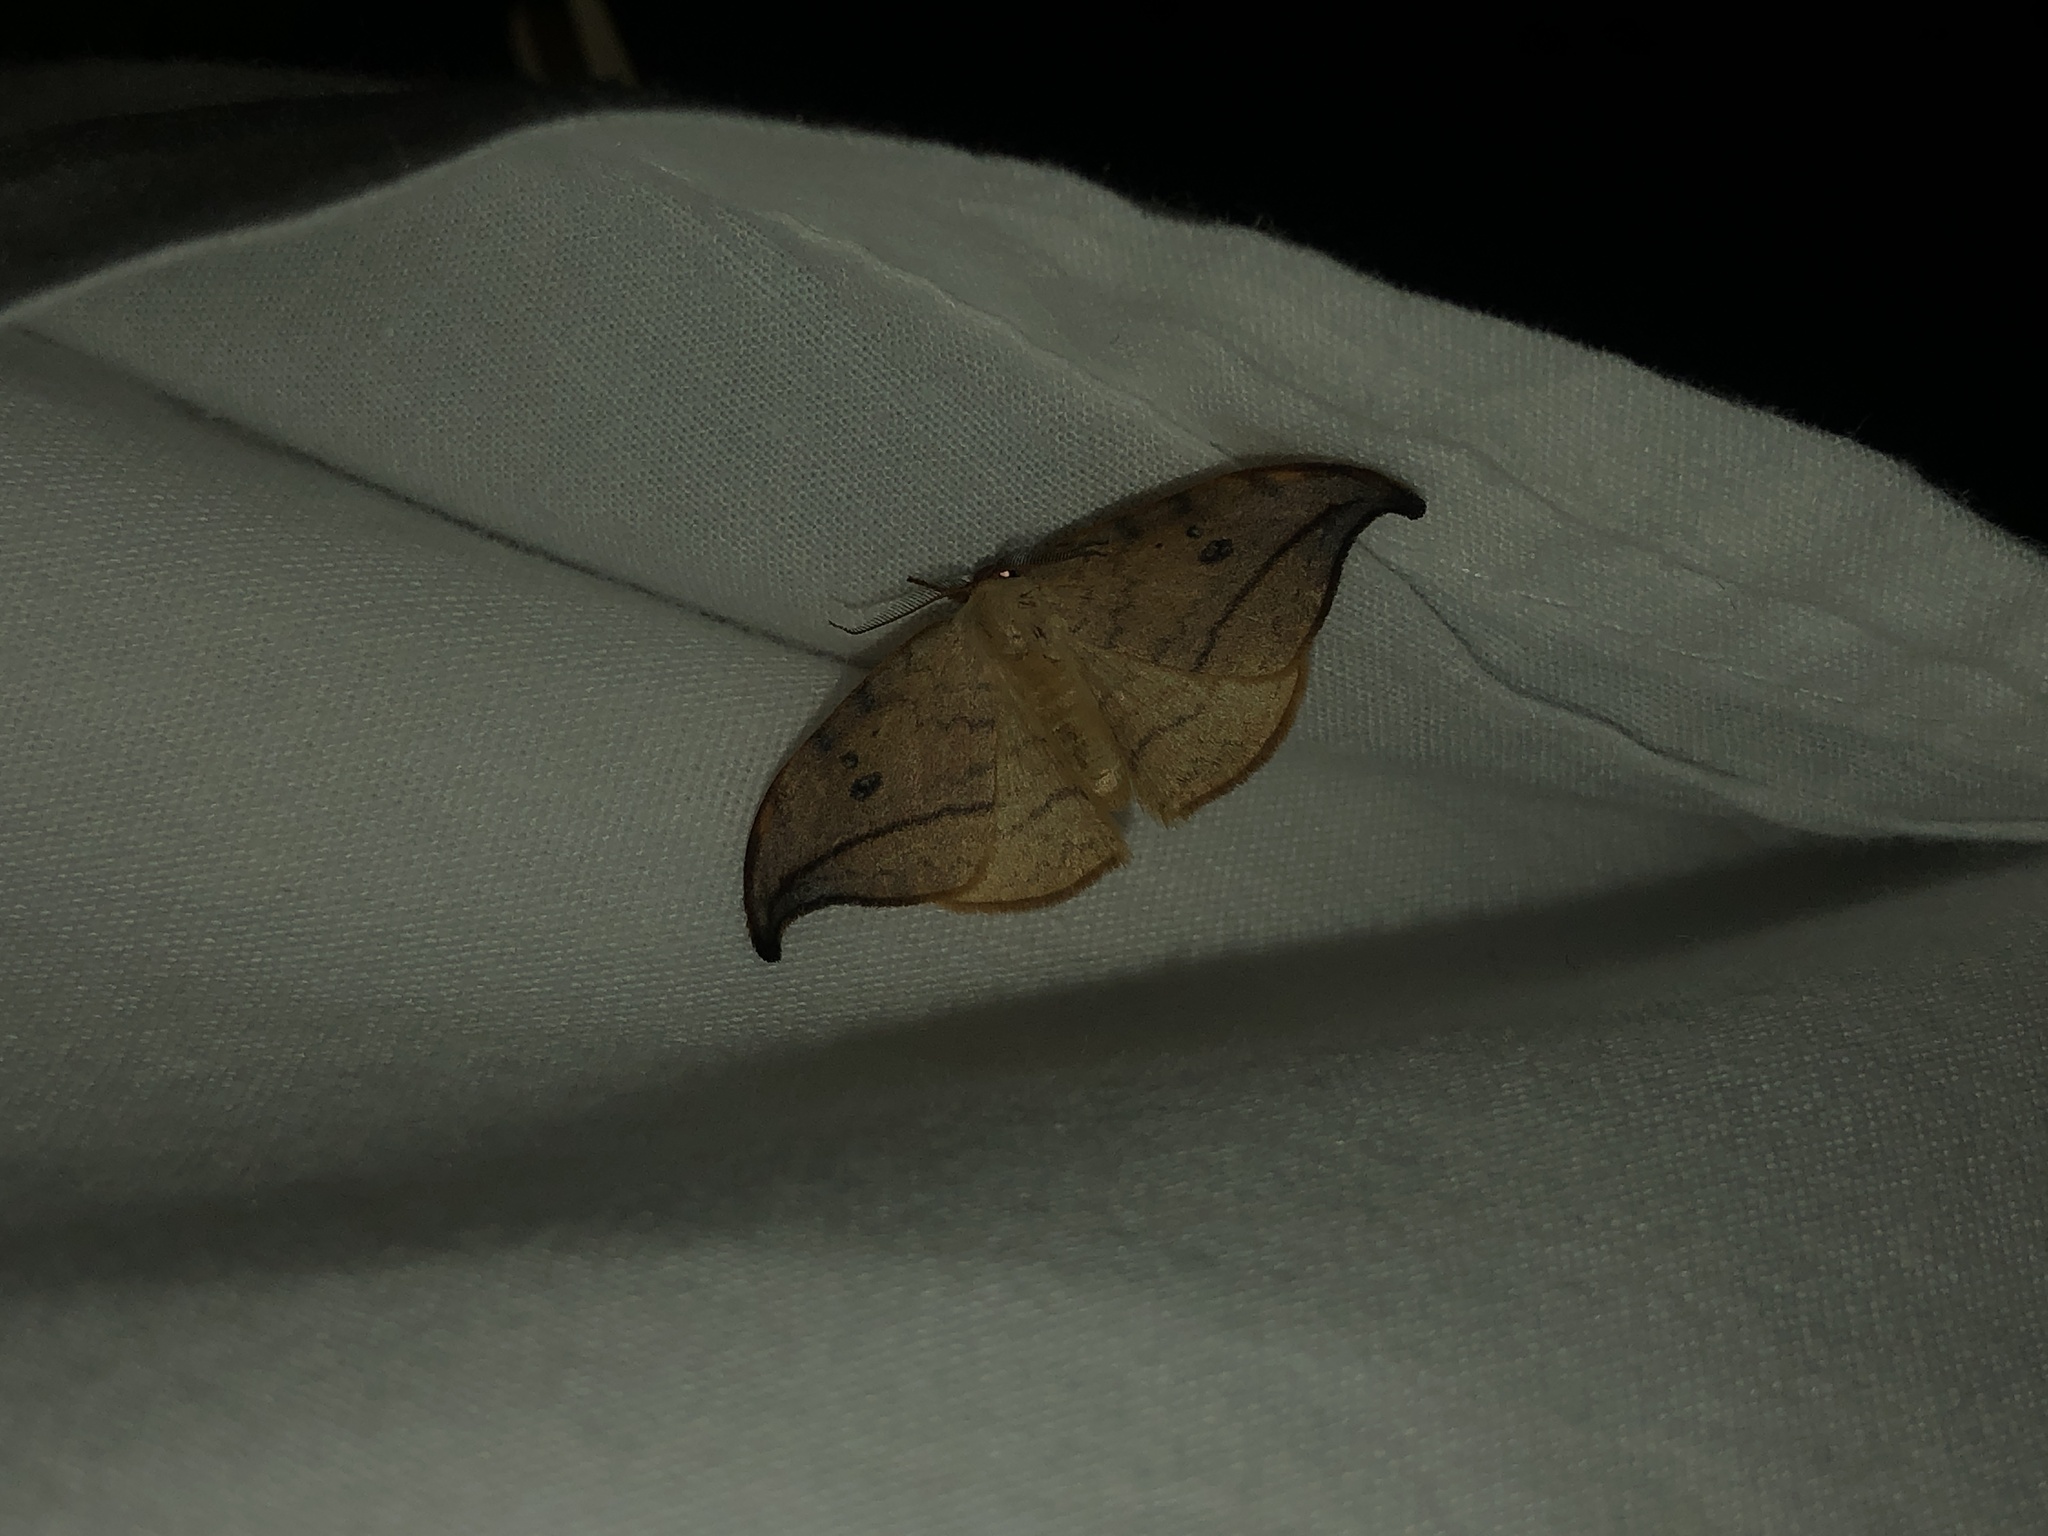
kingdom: Animalia
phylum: Arthropoda
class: Insecta
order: Lepidoptera
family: Drepanidae
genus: Drepana
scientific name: Drepana arcuata
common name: Arched hooktip moth
